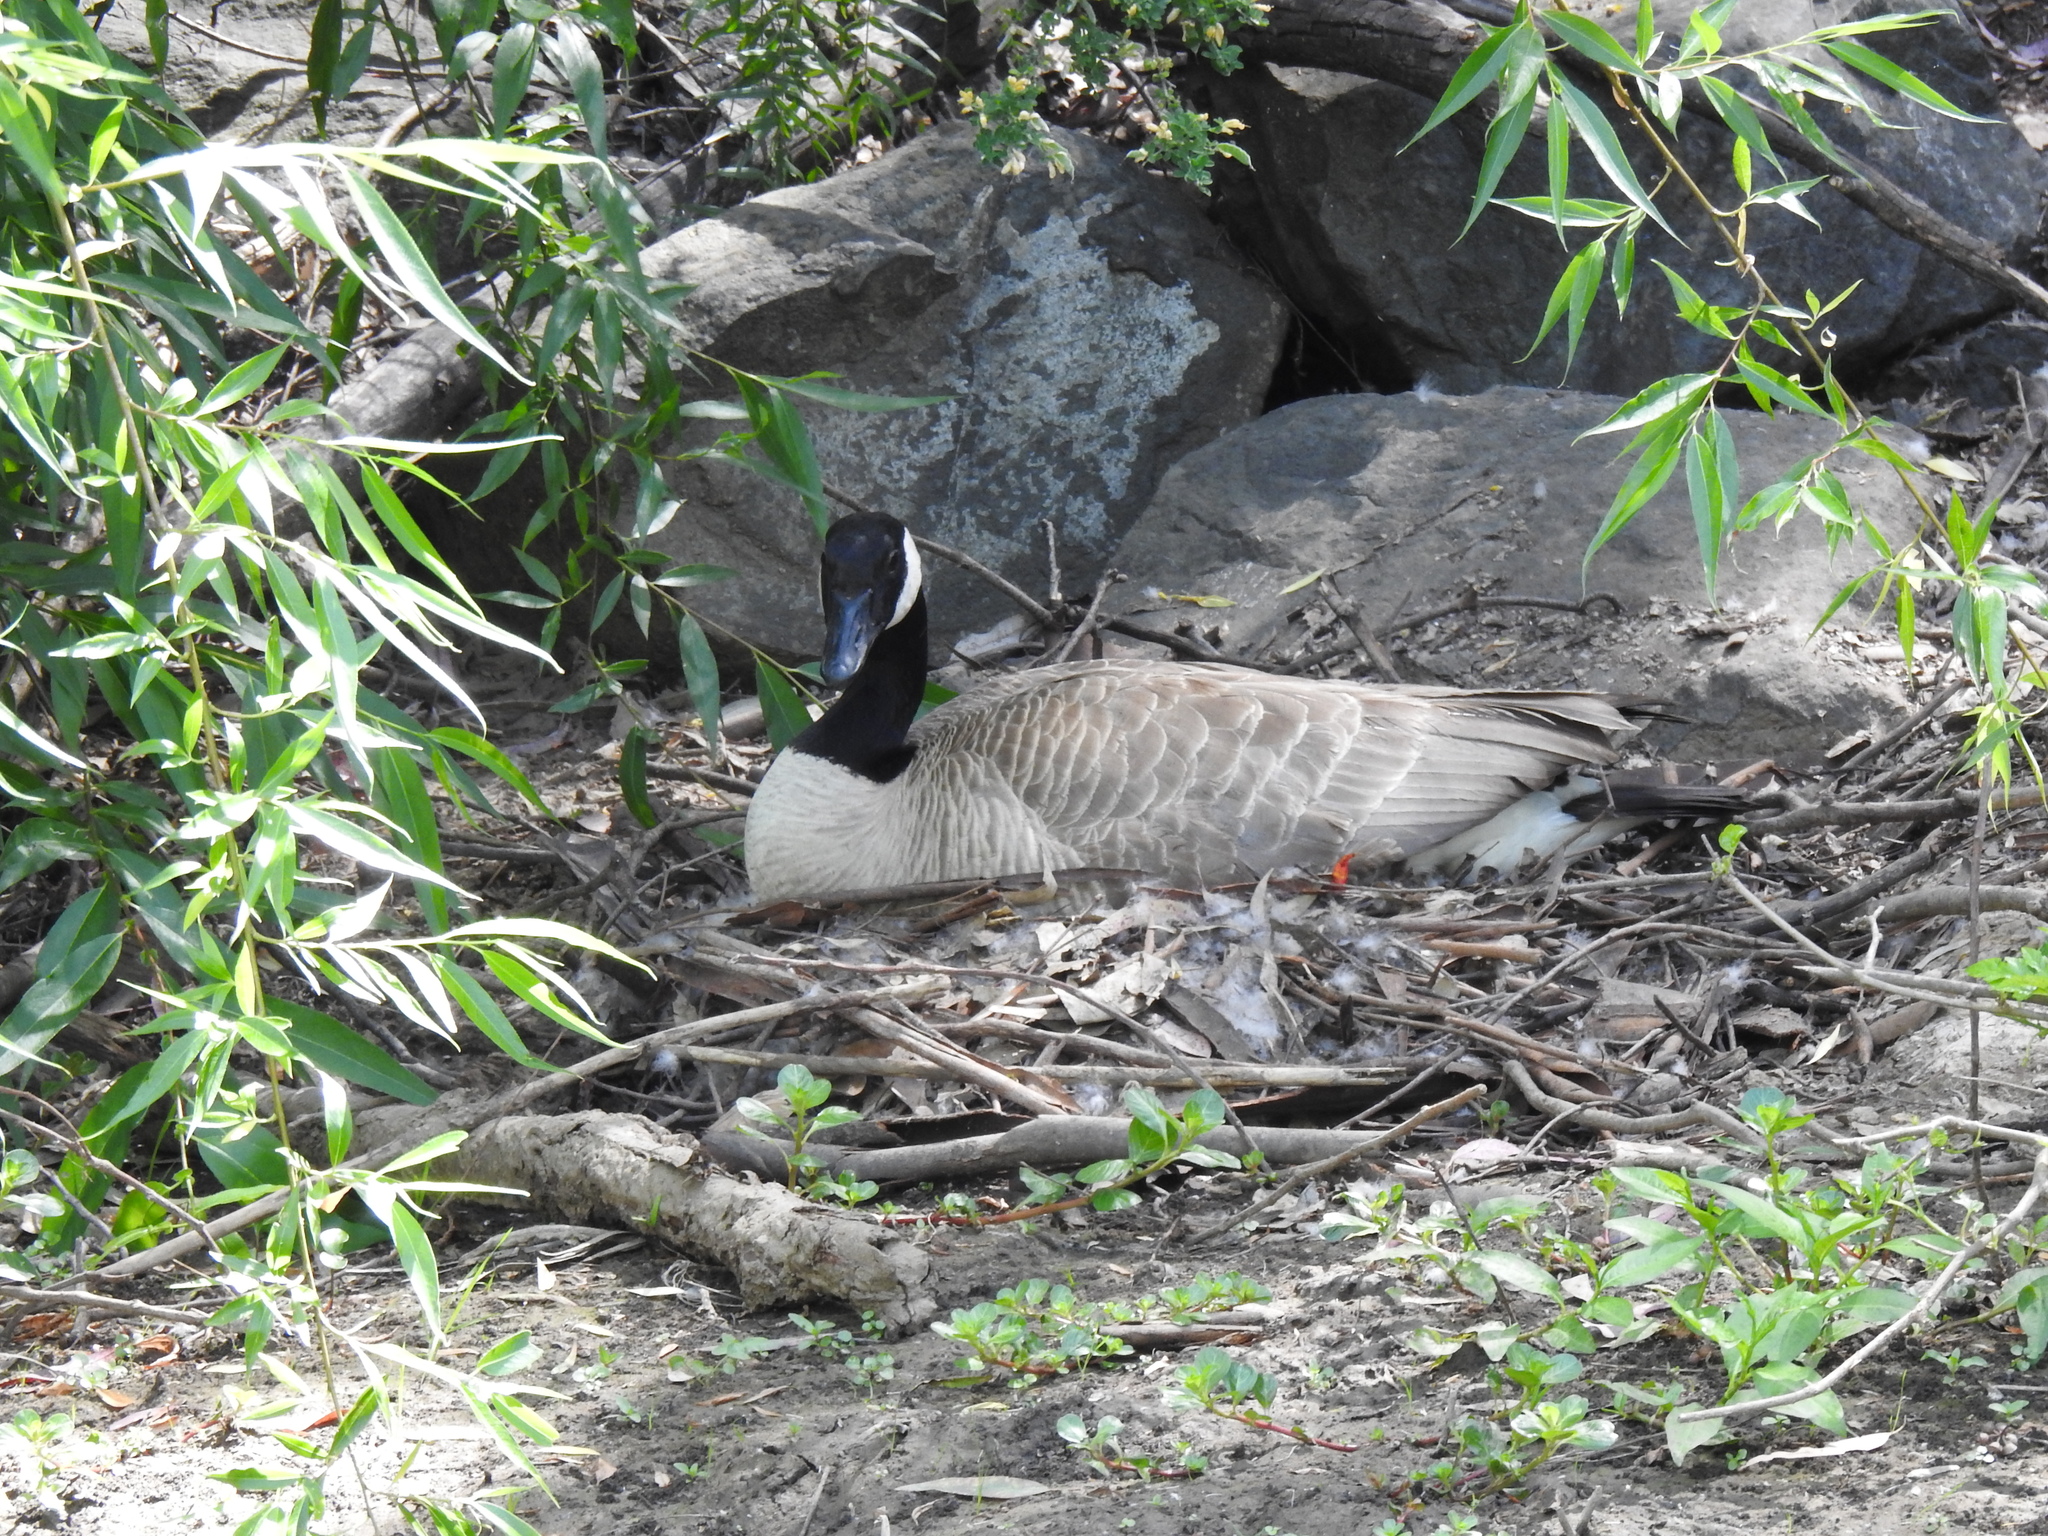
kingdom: Animalia
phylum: Chordata
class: Aves
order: Anseriformes
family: Anatidae
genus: Branta
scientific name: Branta canadensis
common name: Canada goose
